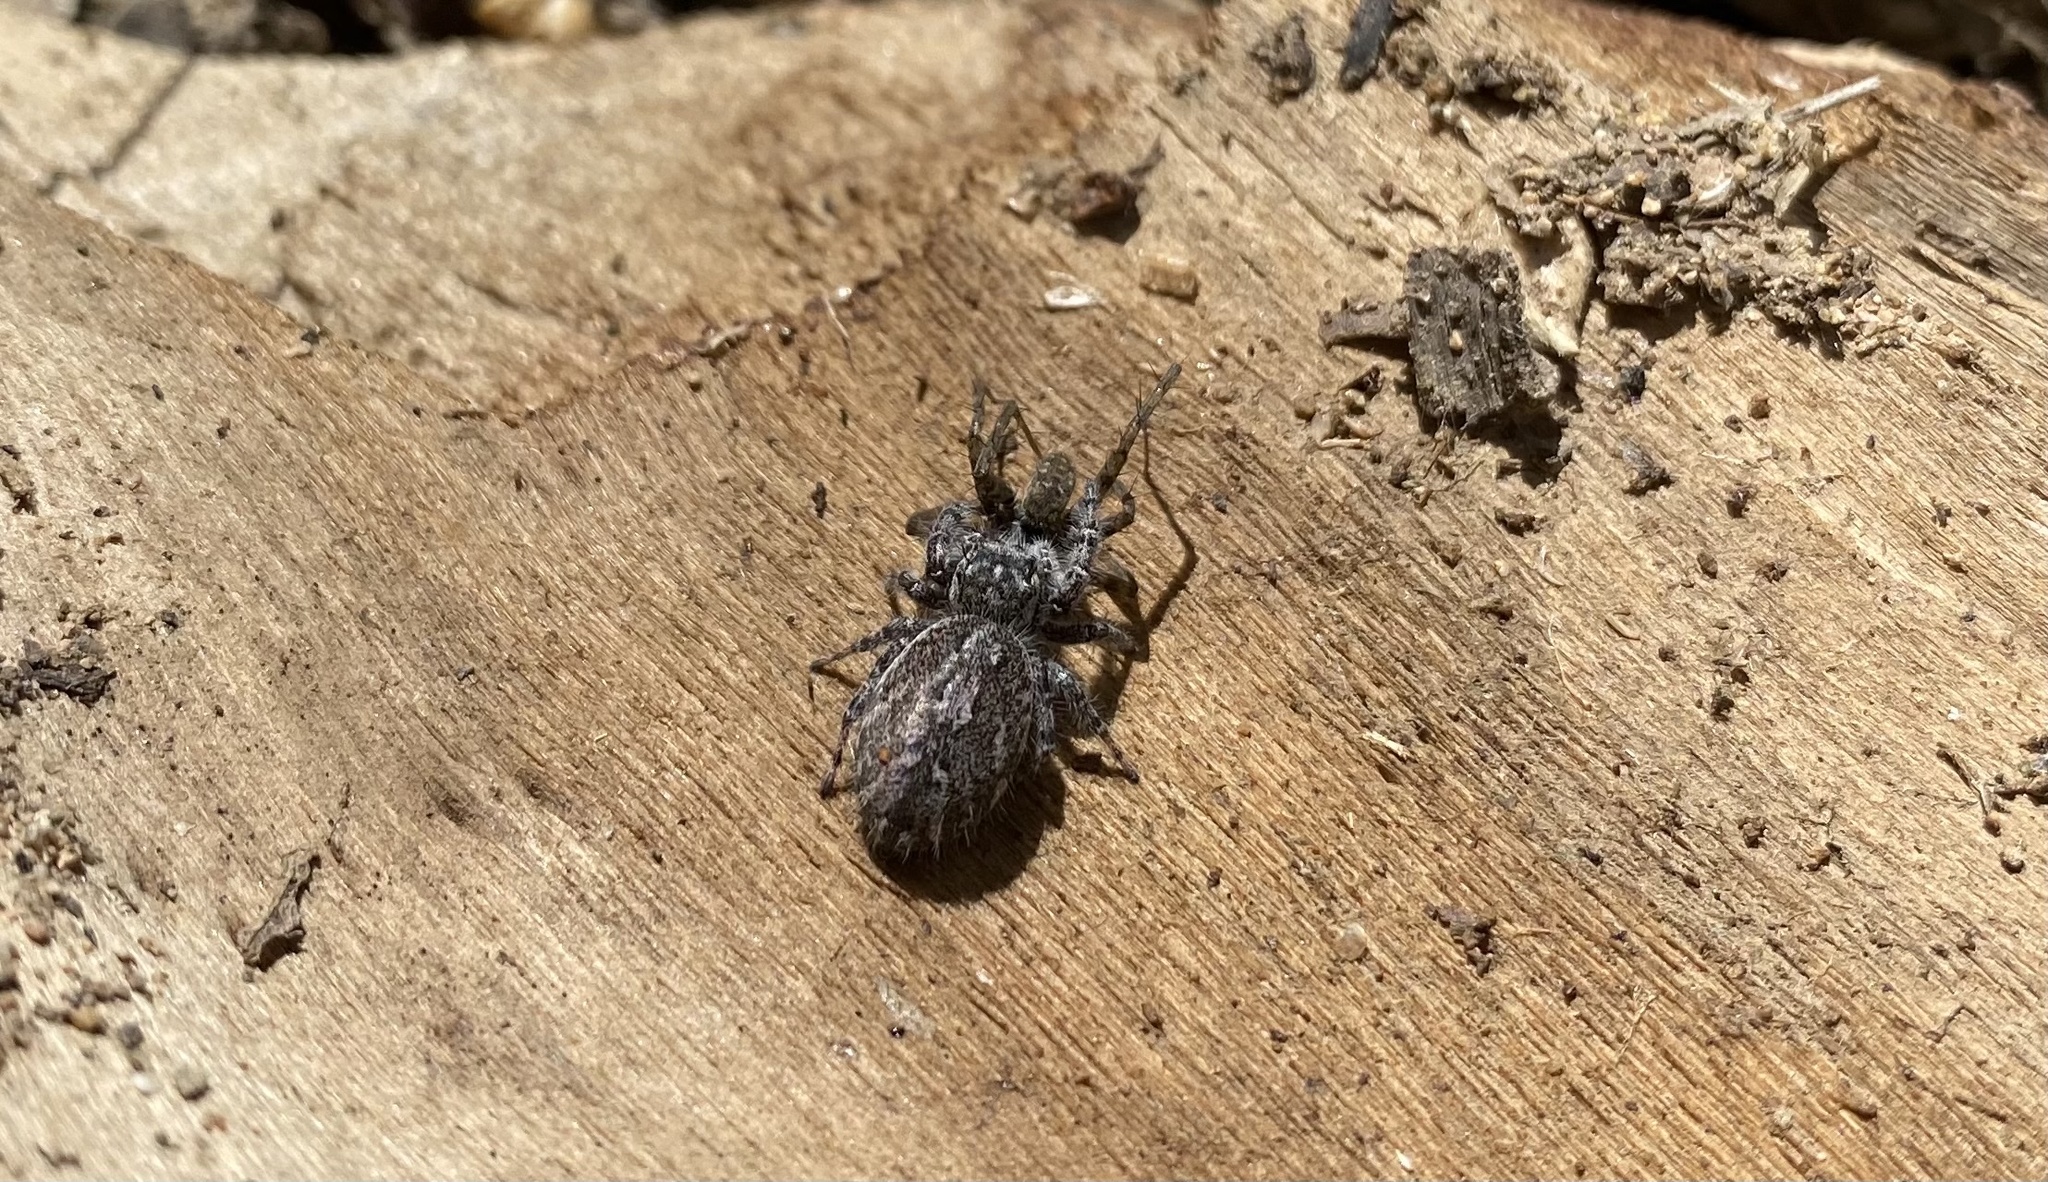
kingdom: Animalia
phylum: Arthropoda
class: Arachnida
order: Araneae
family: Salticidae
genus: Phidippus
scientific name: Phidippus asotus
